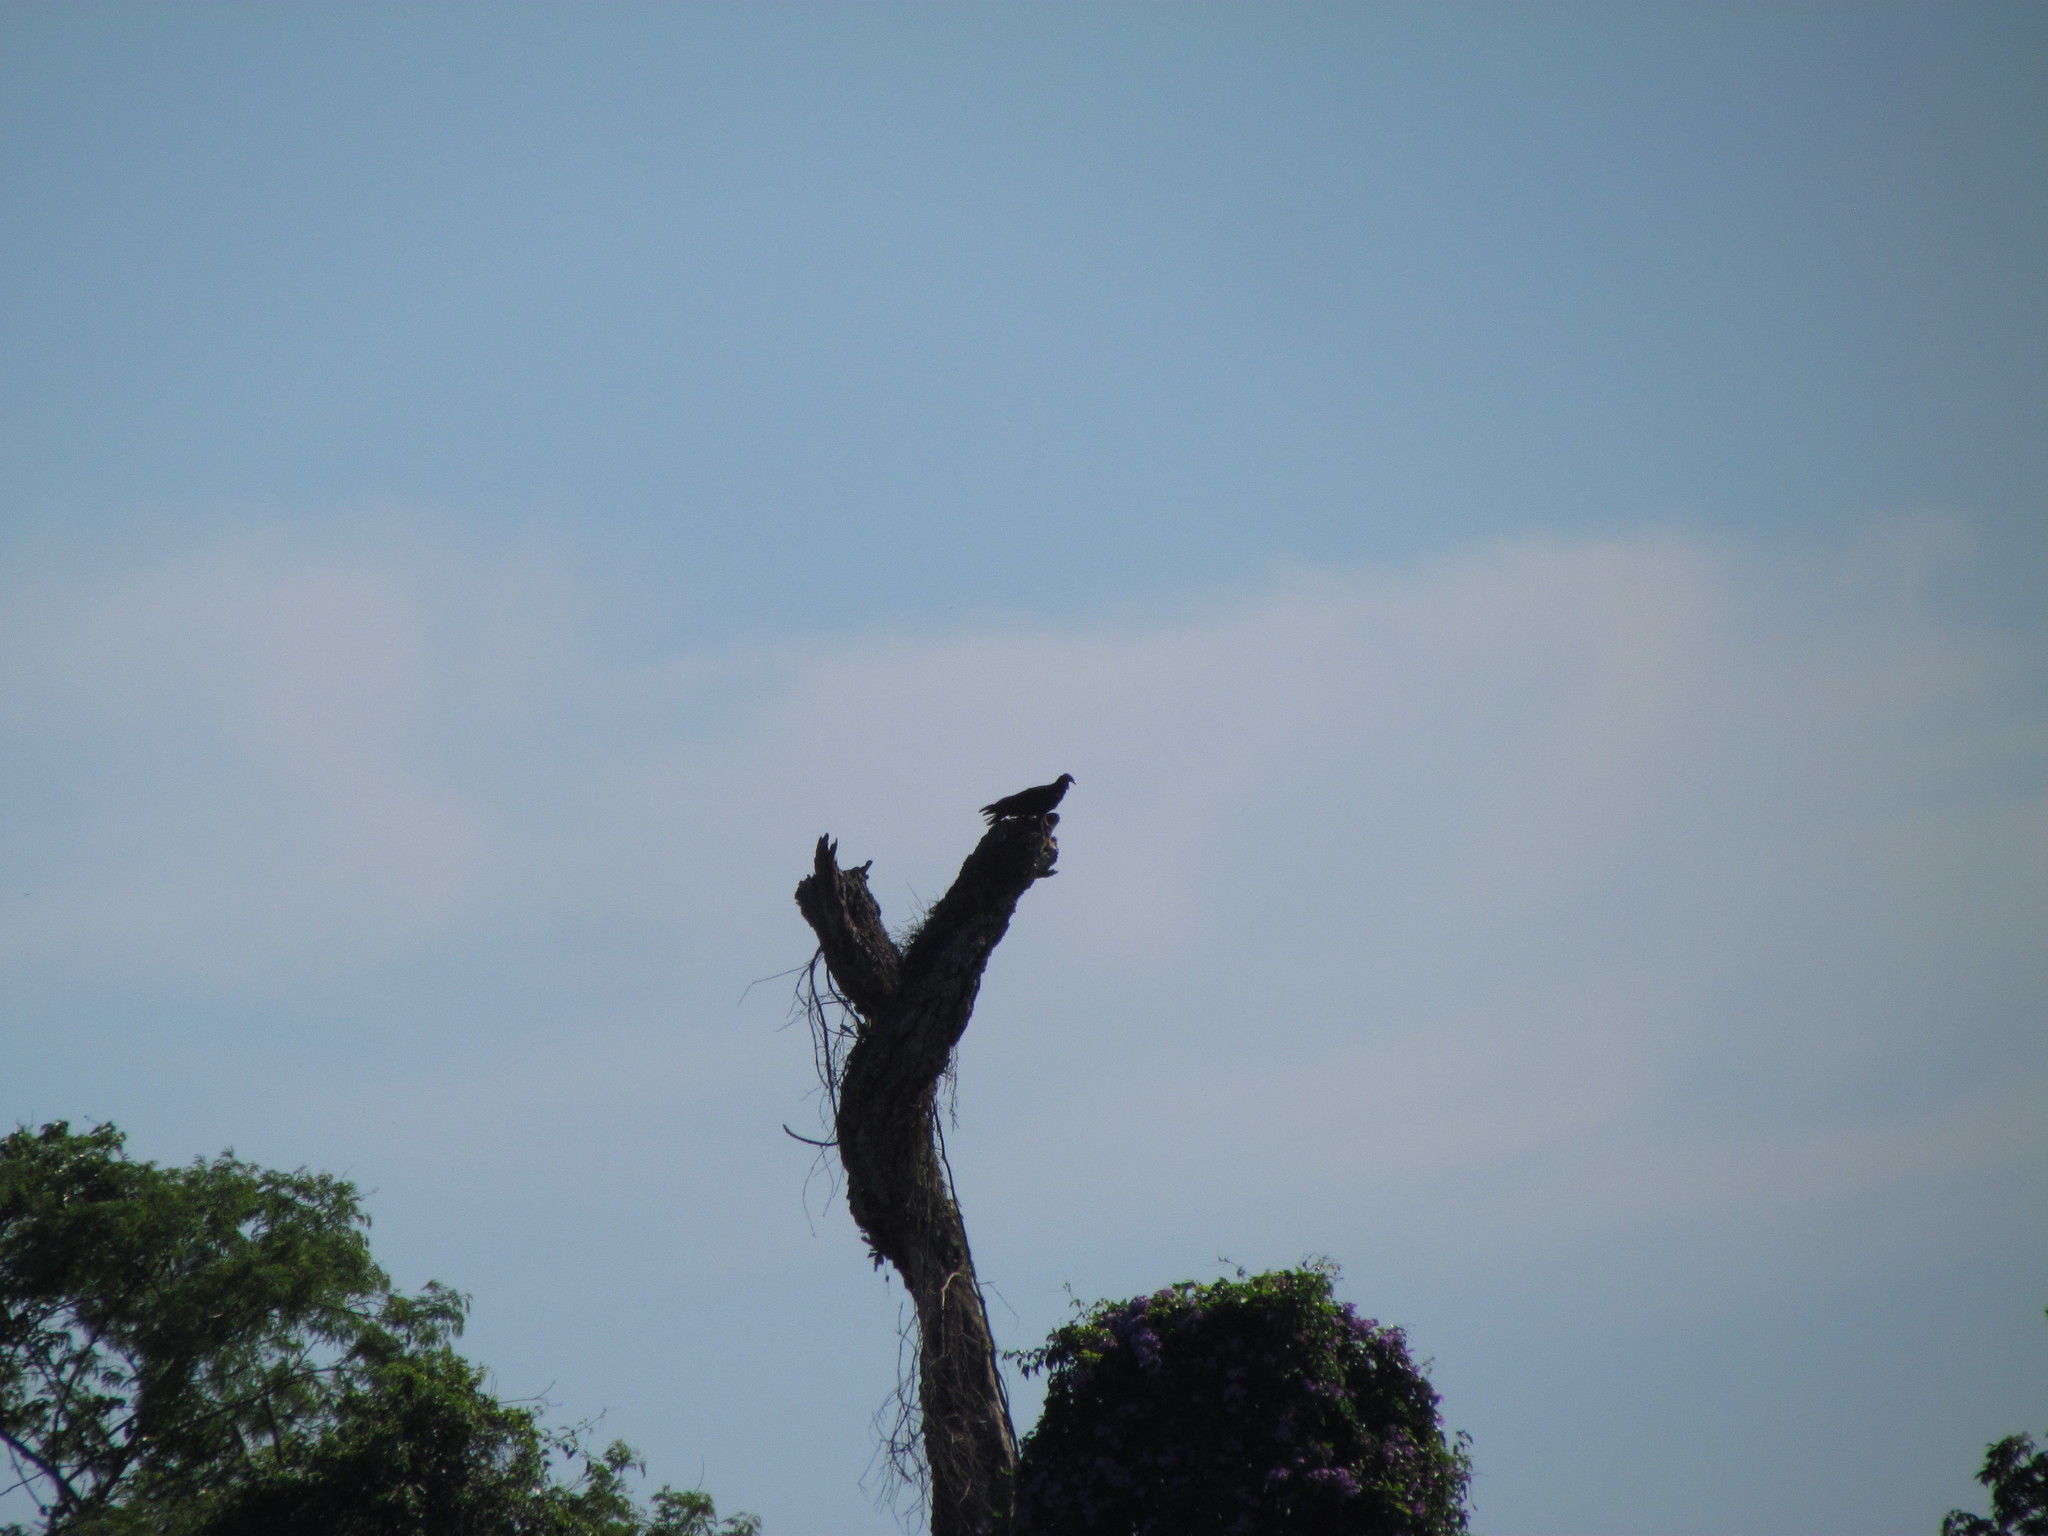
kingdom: Animalia
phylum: Chordata
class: Aves
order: Accipitriformes
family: Cathartidae
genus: Coragyps
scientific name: Coragyps atratus
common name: Black vulture
